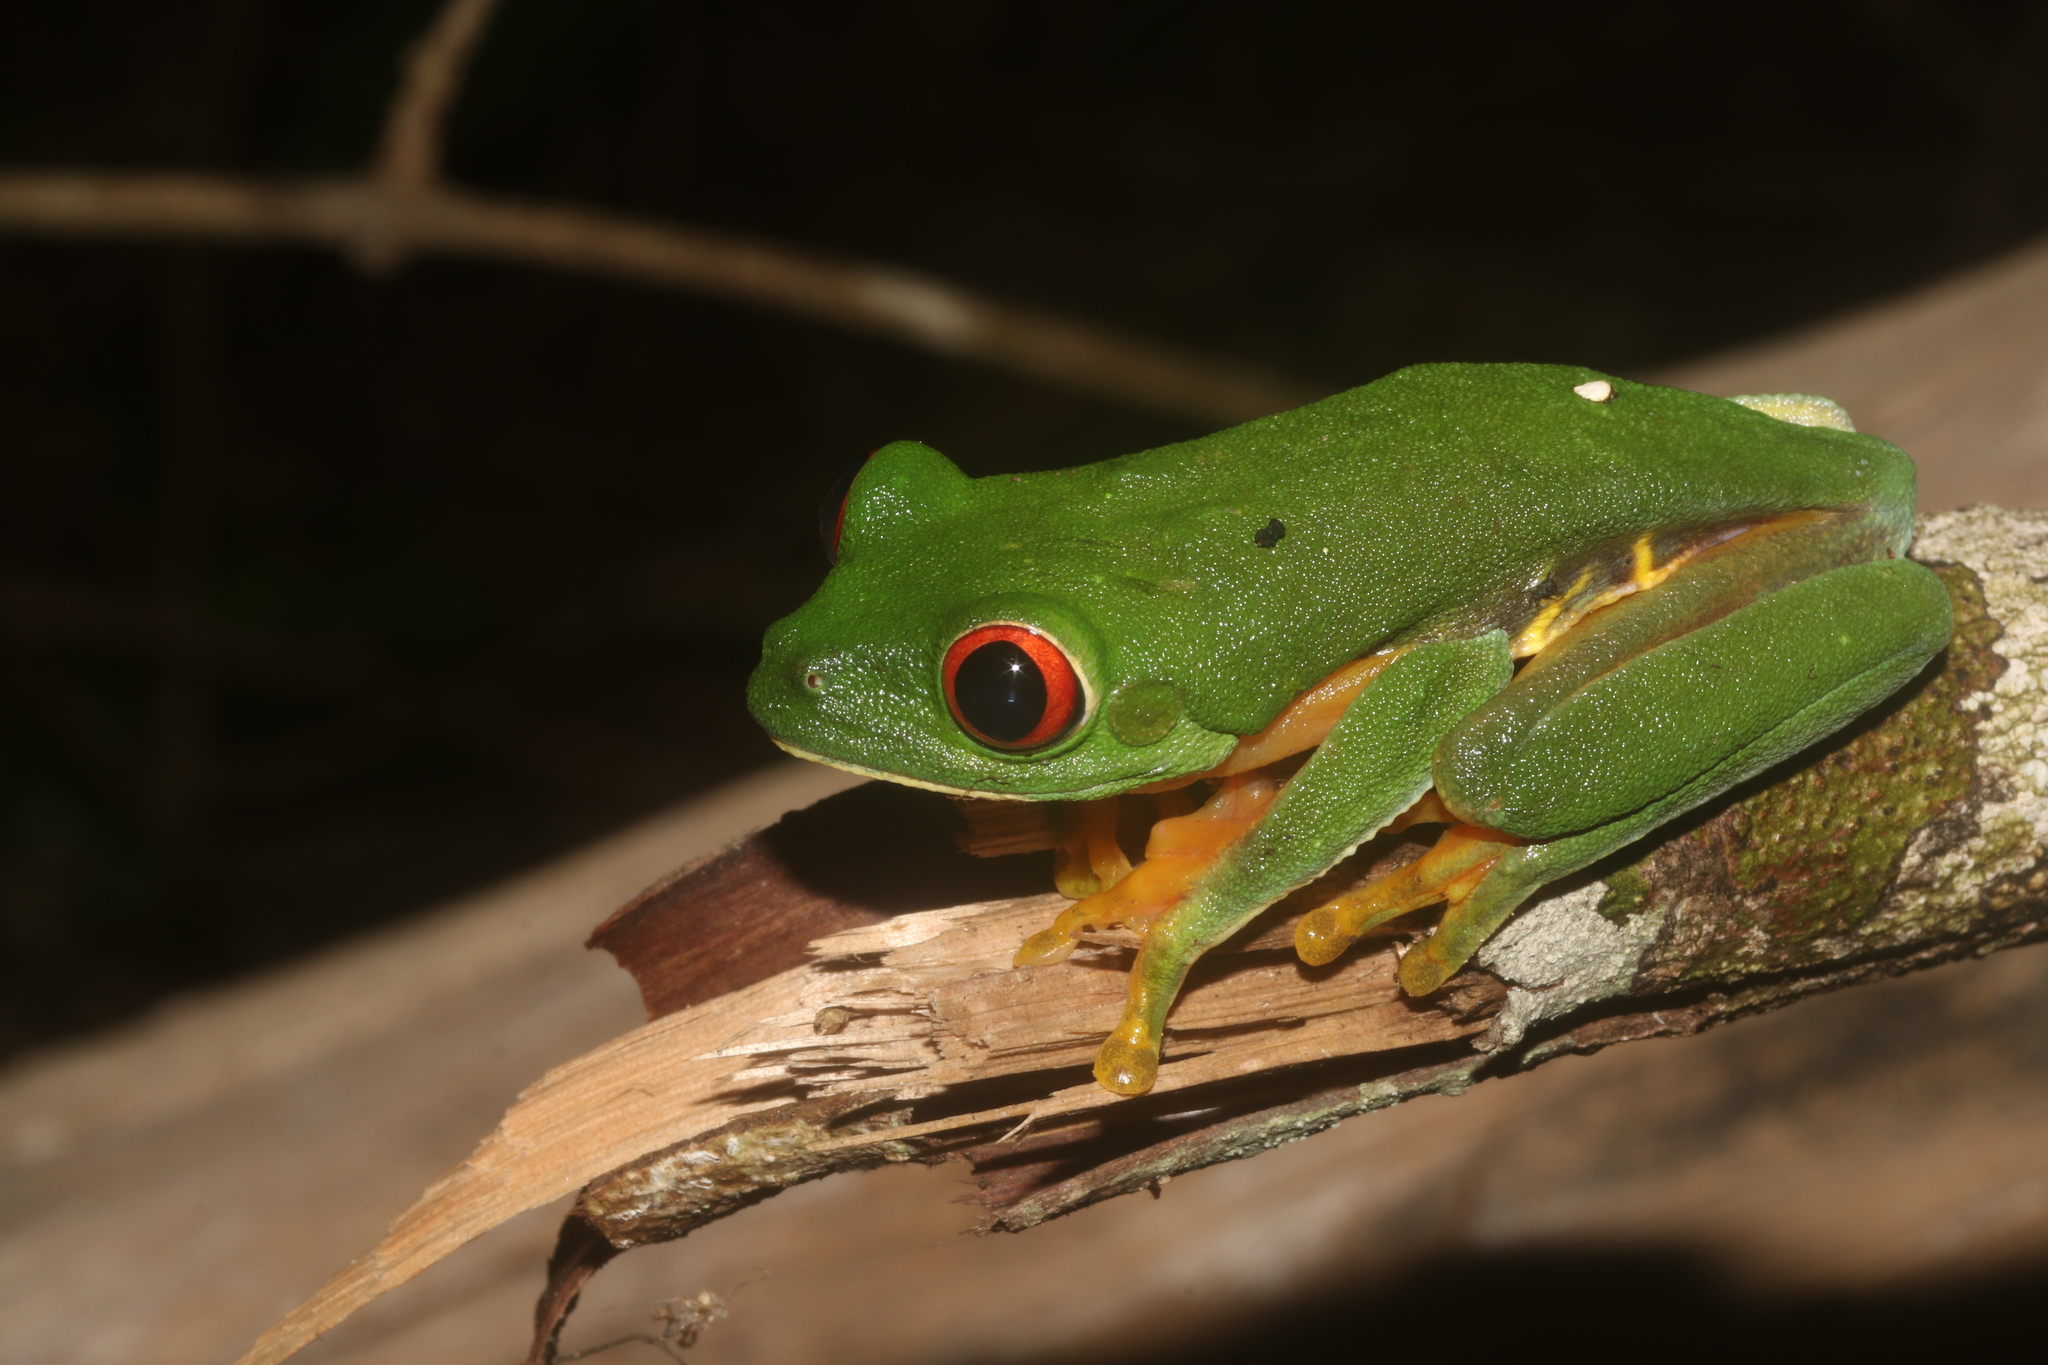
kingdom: Animalia
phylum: Chordata
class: Amphibia
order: Anura
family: Phyllomedusidae
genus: Agalychnis
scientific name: Agalychnis
